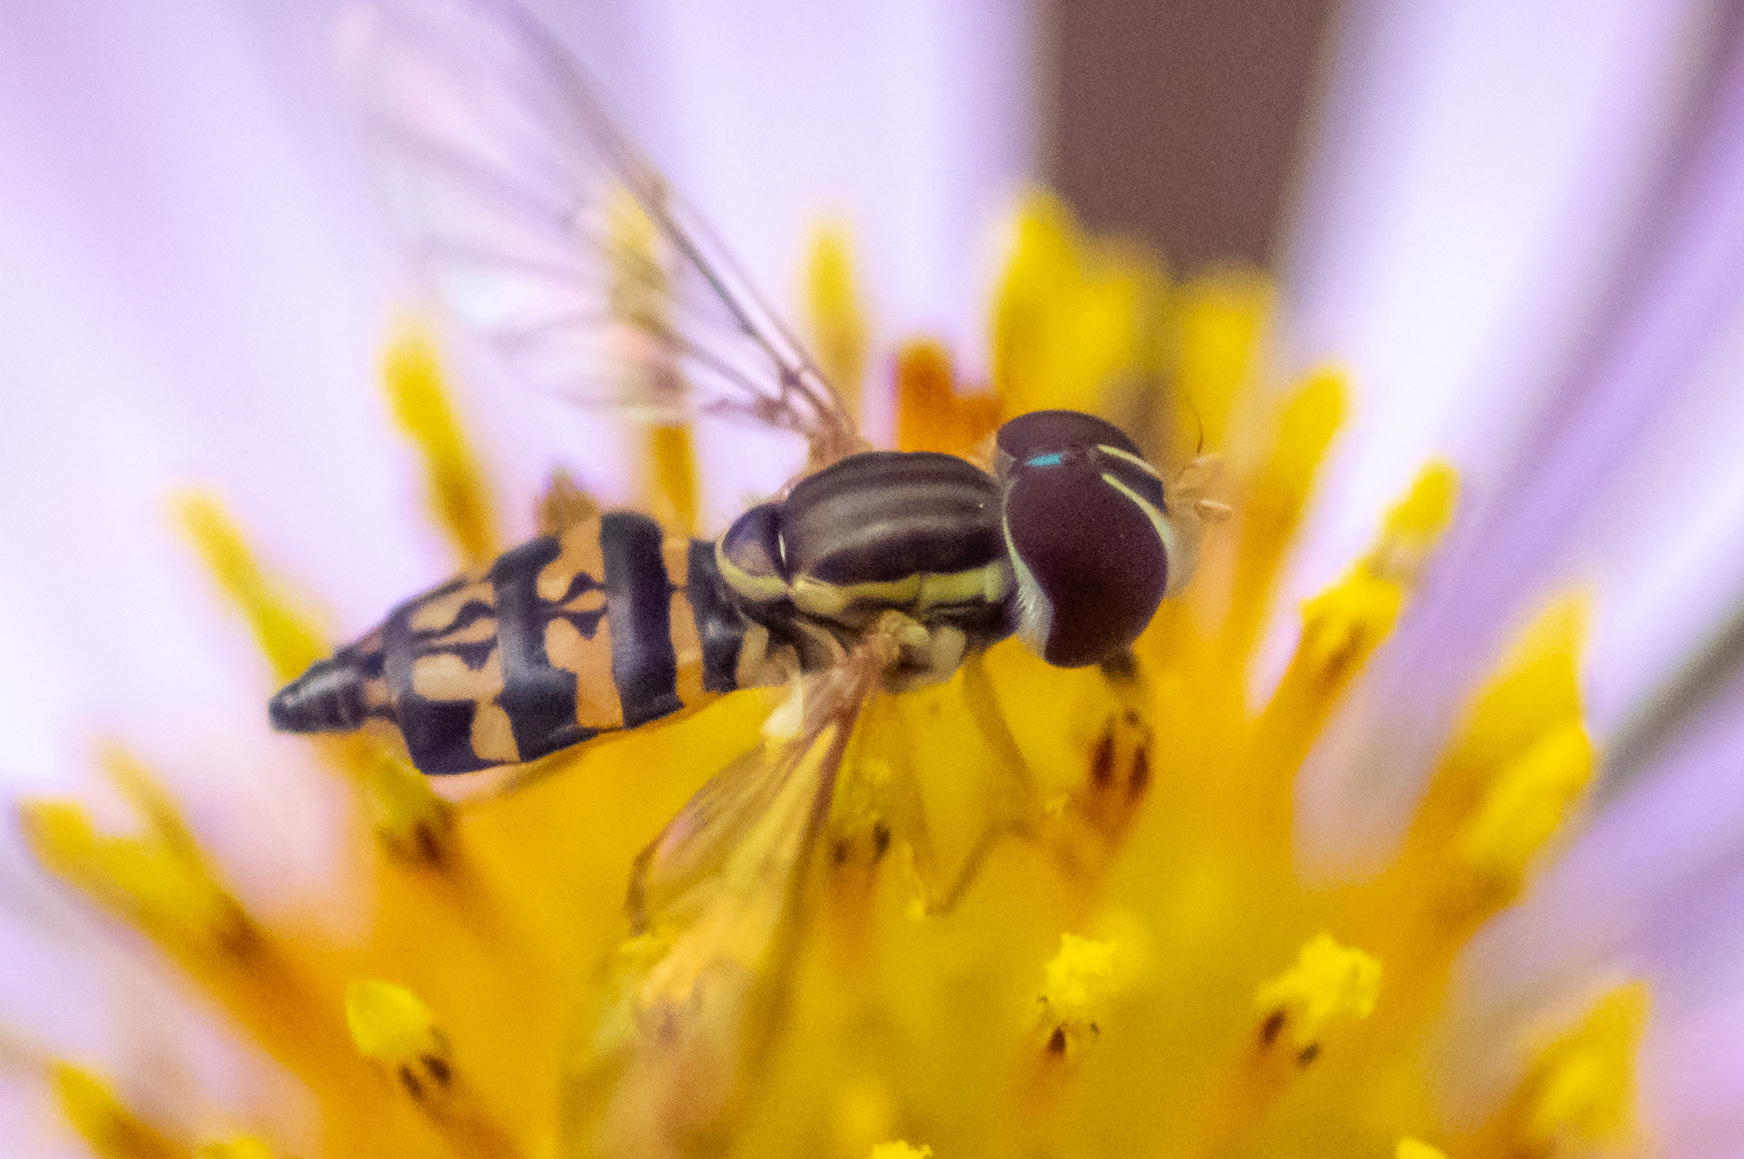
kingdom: Animalia
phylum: Arthropoda
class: Insecta
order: Diptera
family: Syrphidae
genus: Toxomerus
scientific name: Toxomerus geminatus
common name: Eastern calligrapher
